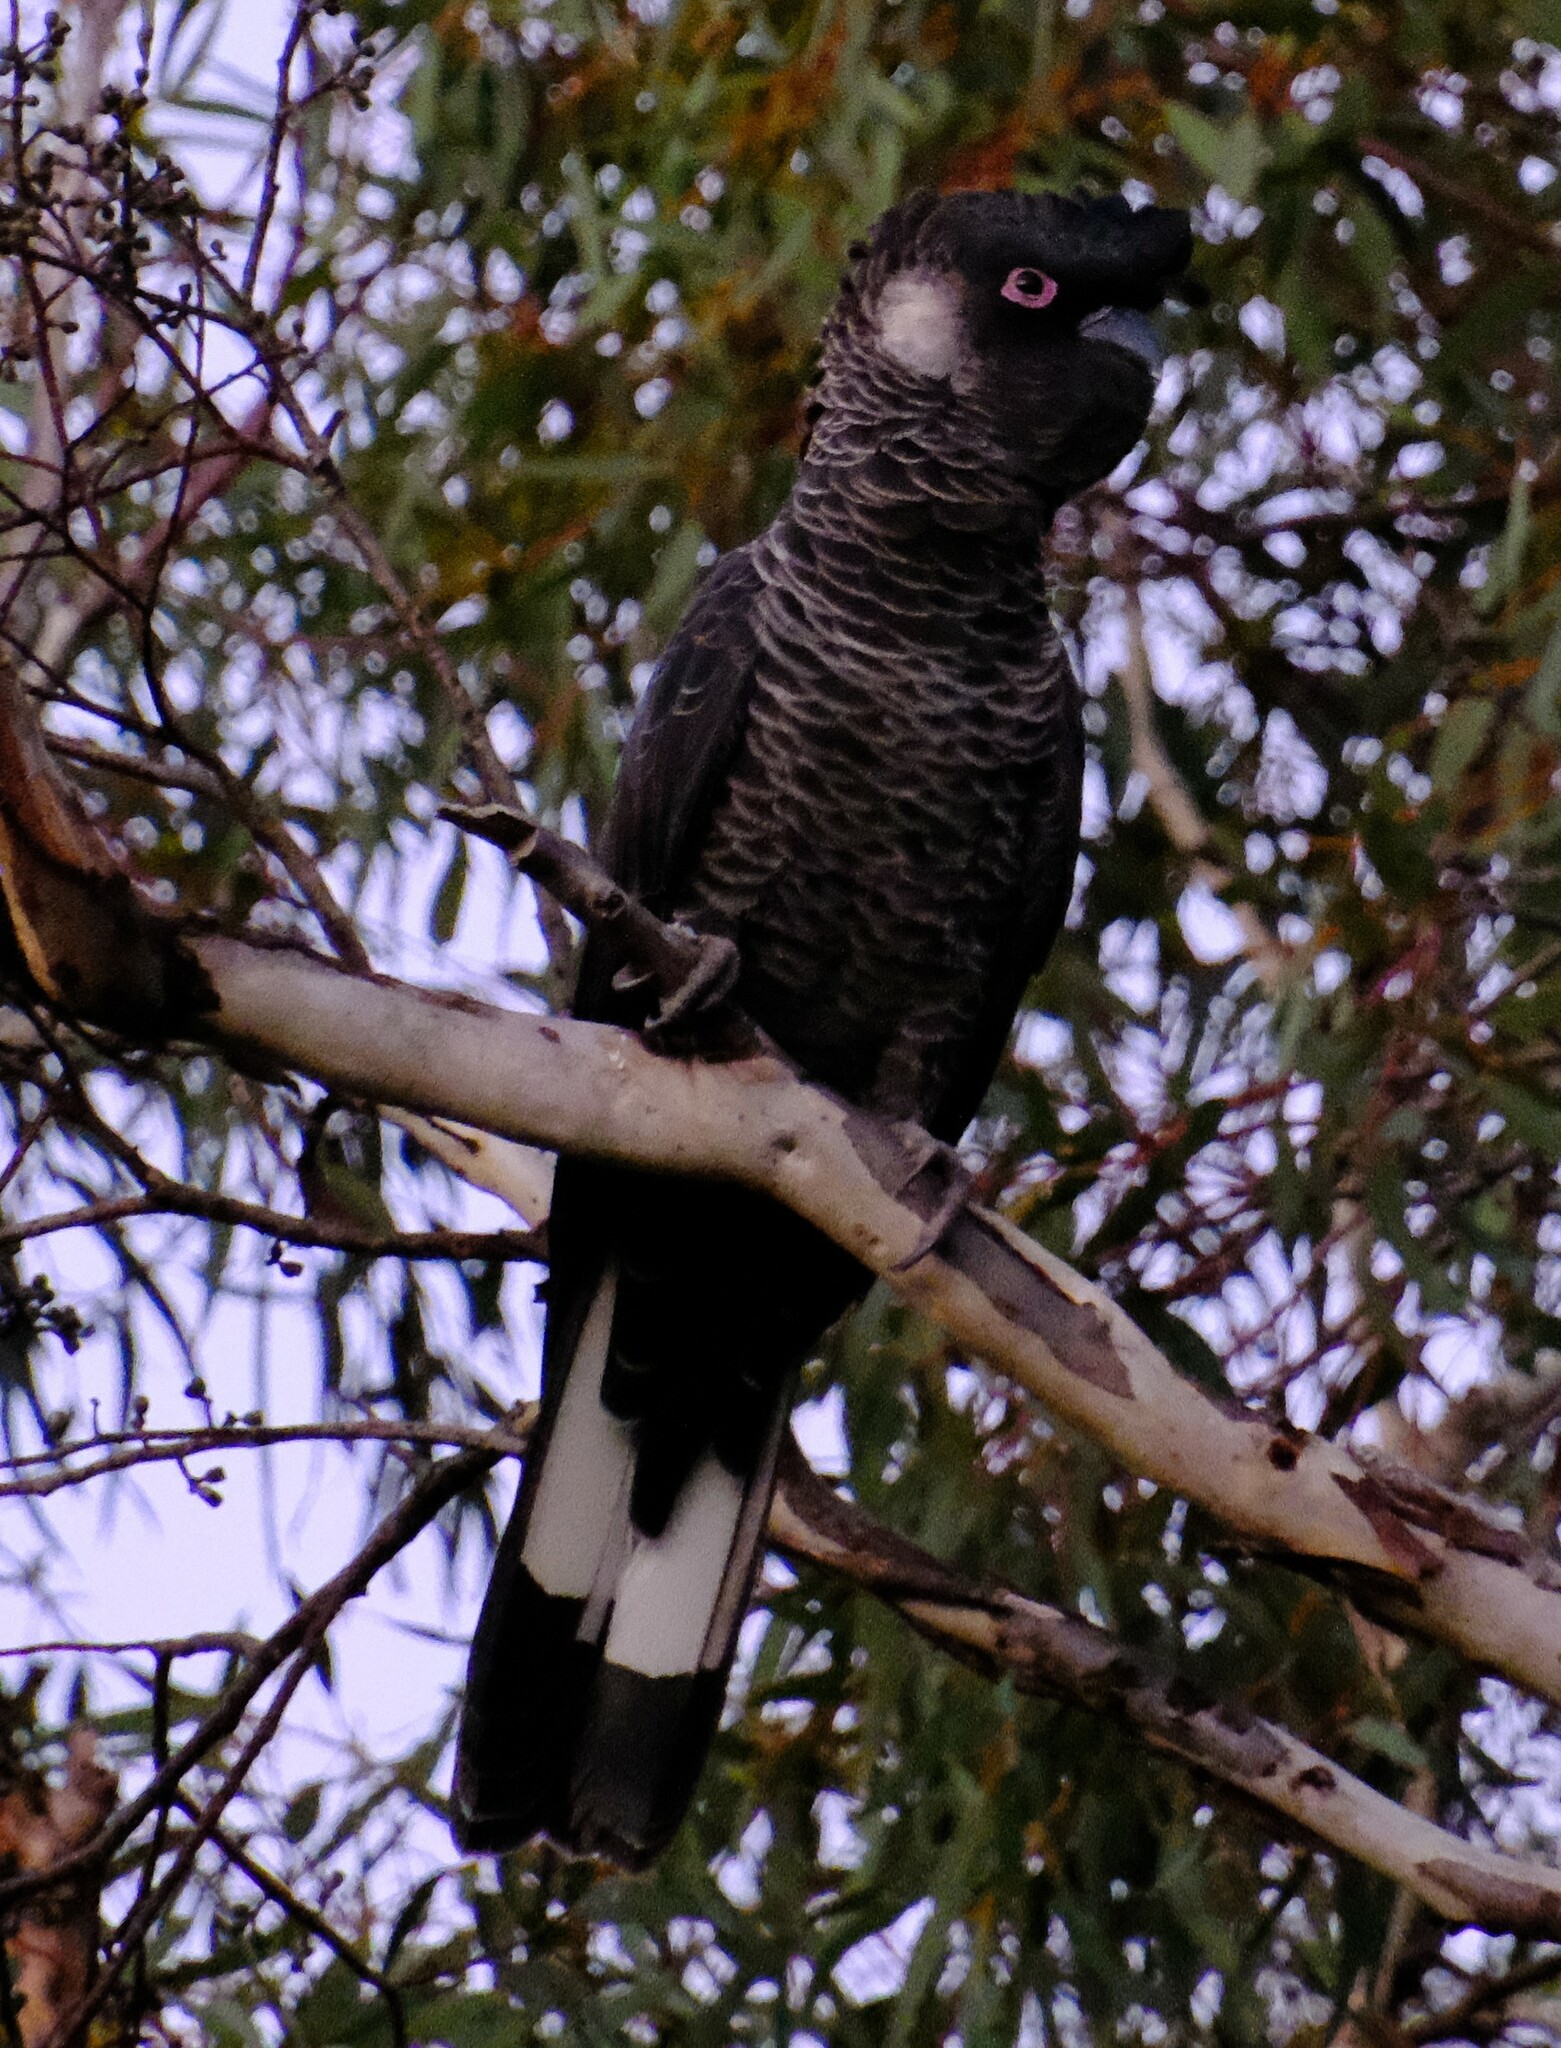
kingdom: Animalia
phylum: Chordata
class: Aves
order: Psittaciformes
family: Cacatuidae
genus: Zanda
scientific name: Zanda latirostris
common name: Short-billed black-cockatoo
